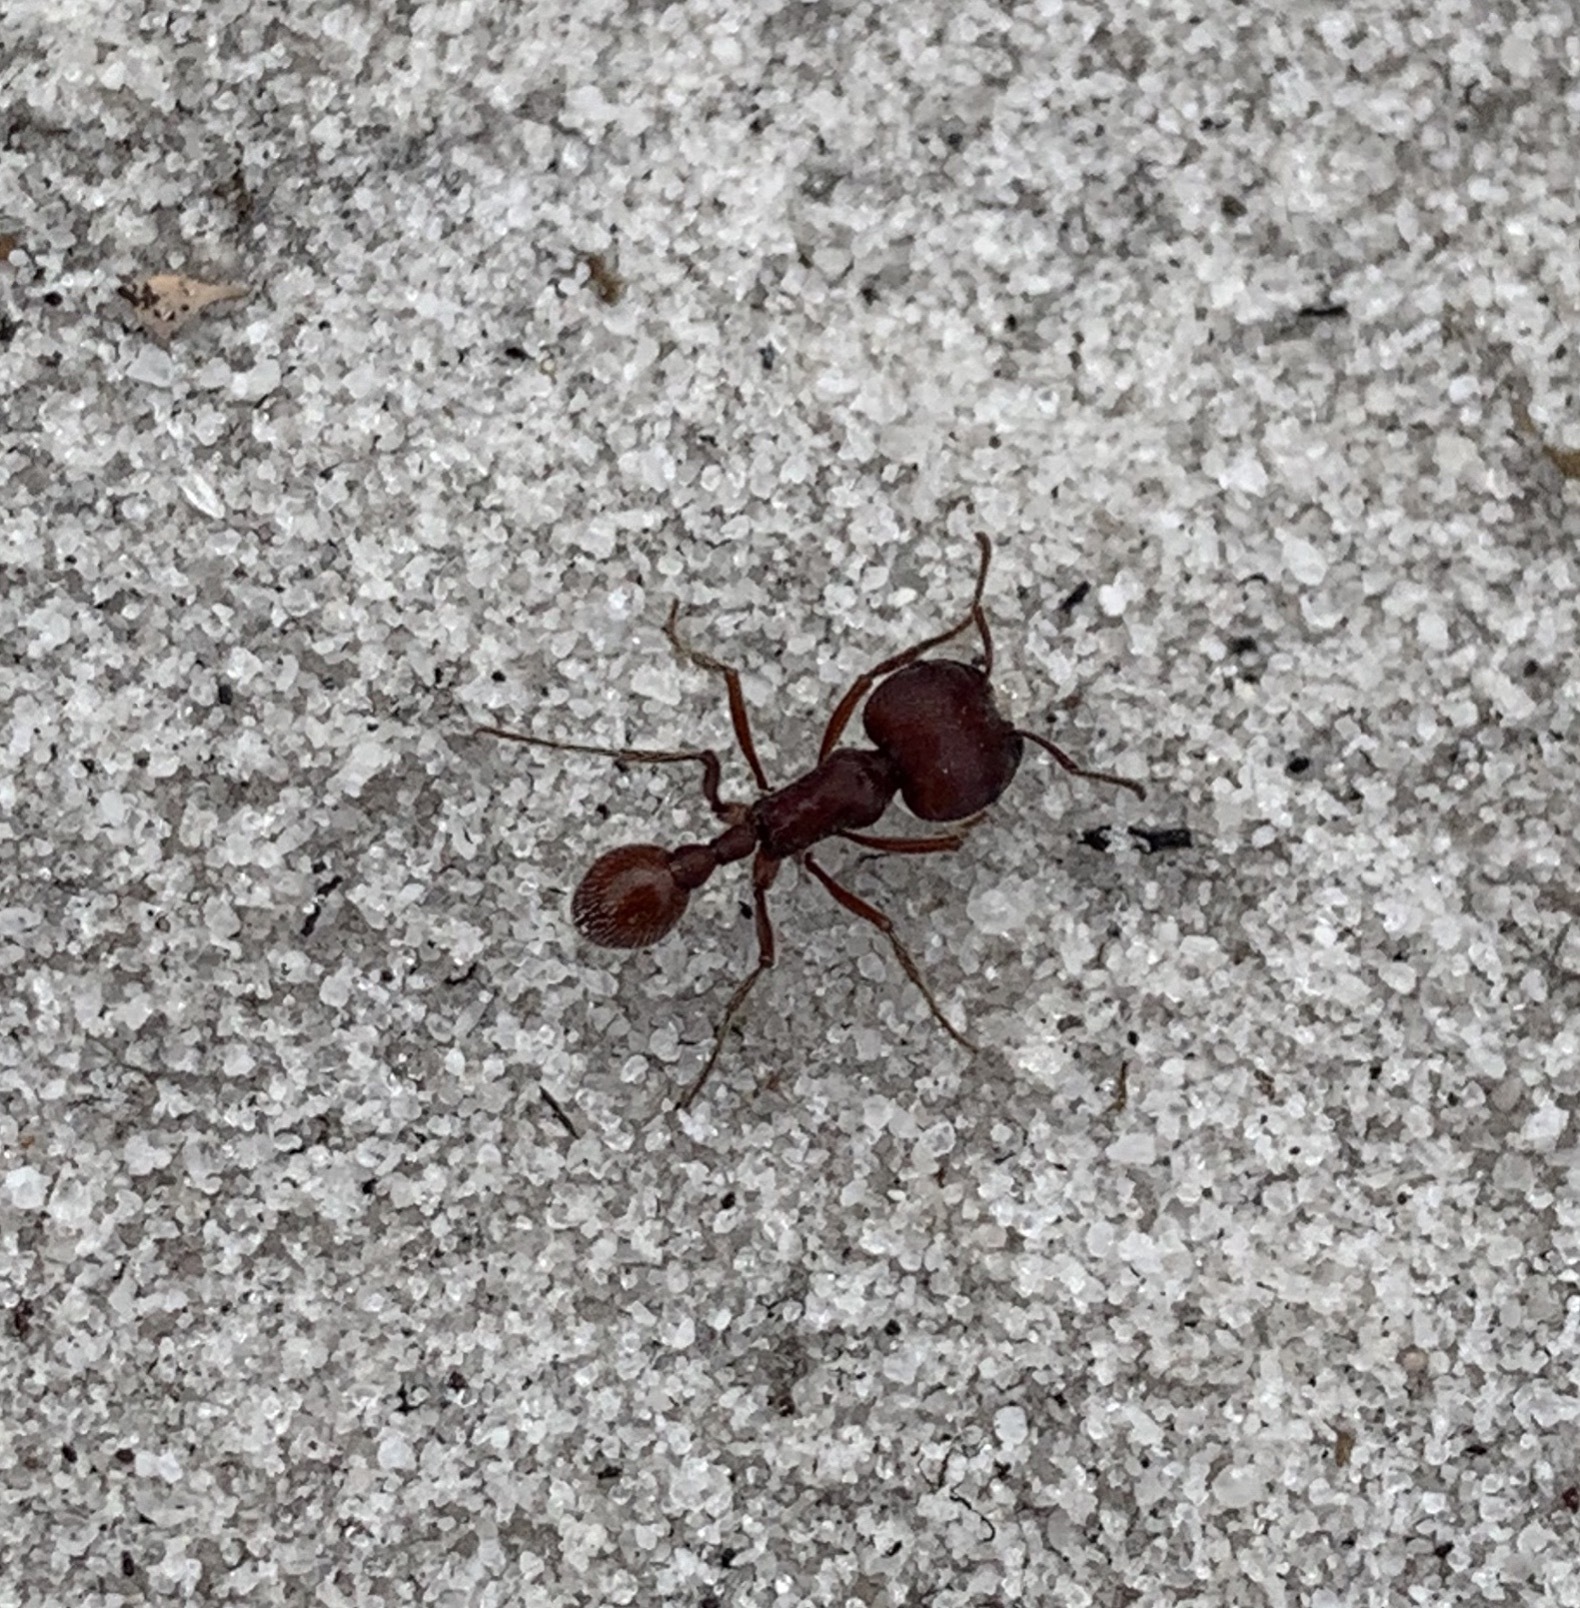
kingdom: Animalia
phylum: Arthropoda
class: Insecta
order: Hymenoptera
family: Formicidae
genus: Pogonomyrmex
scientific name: Pogonomyrmex badius
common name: Florida harvester ant
